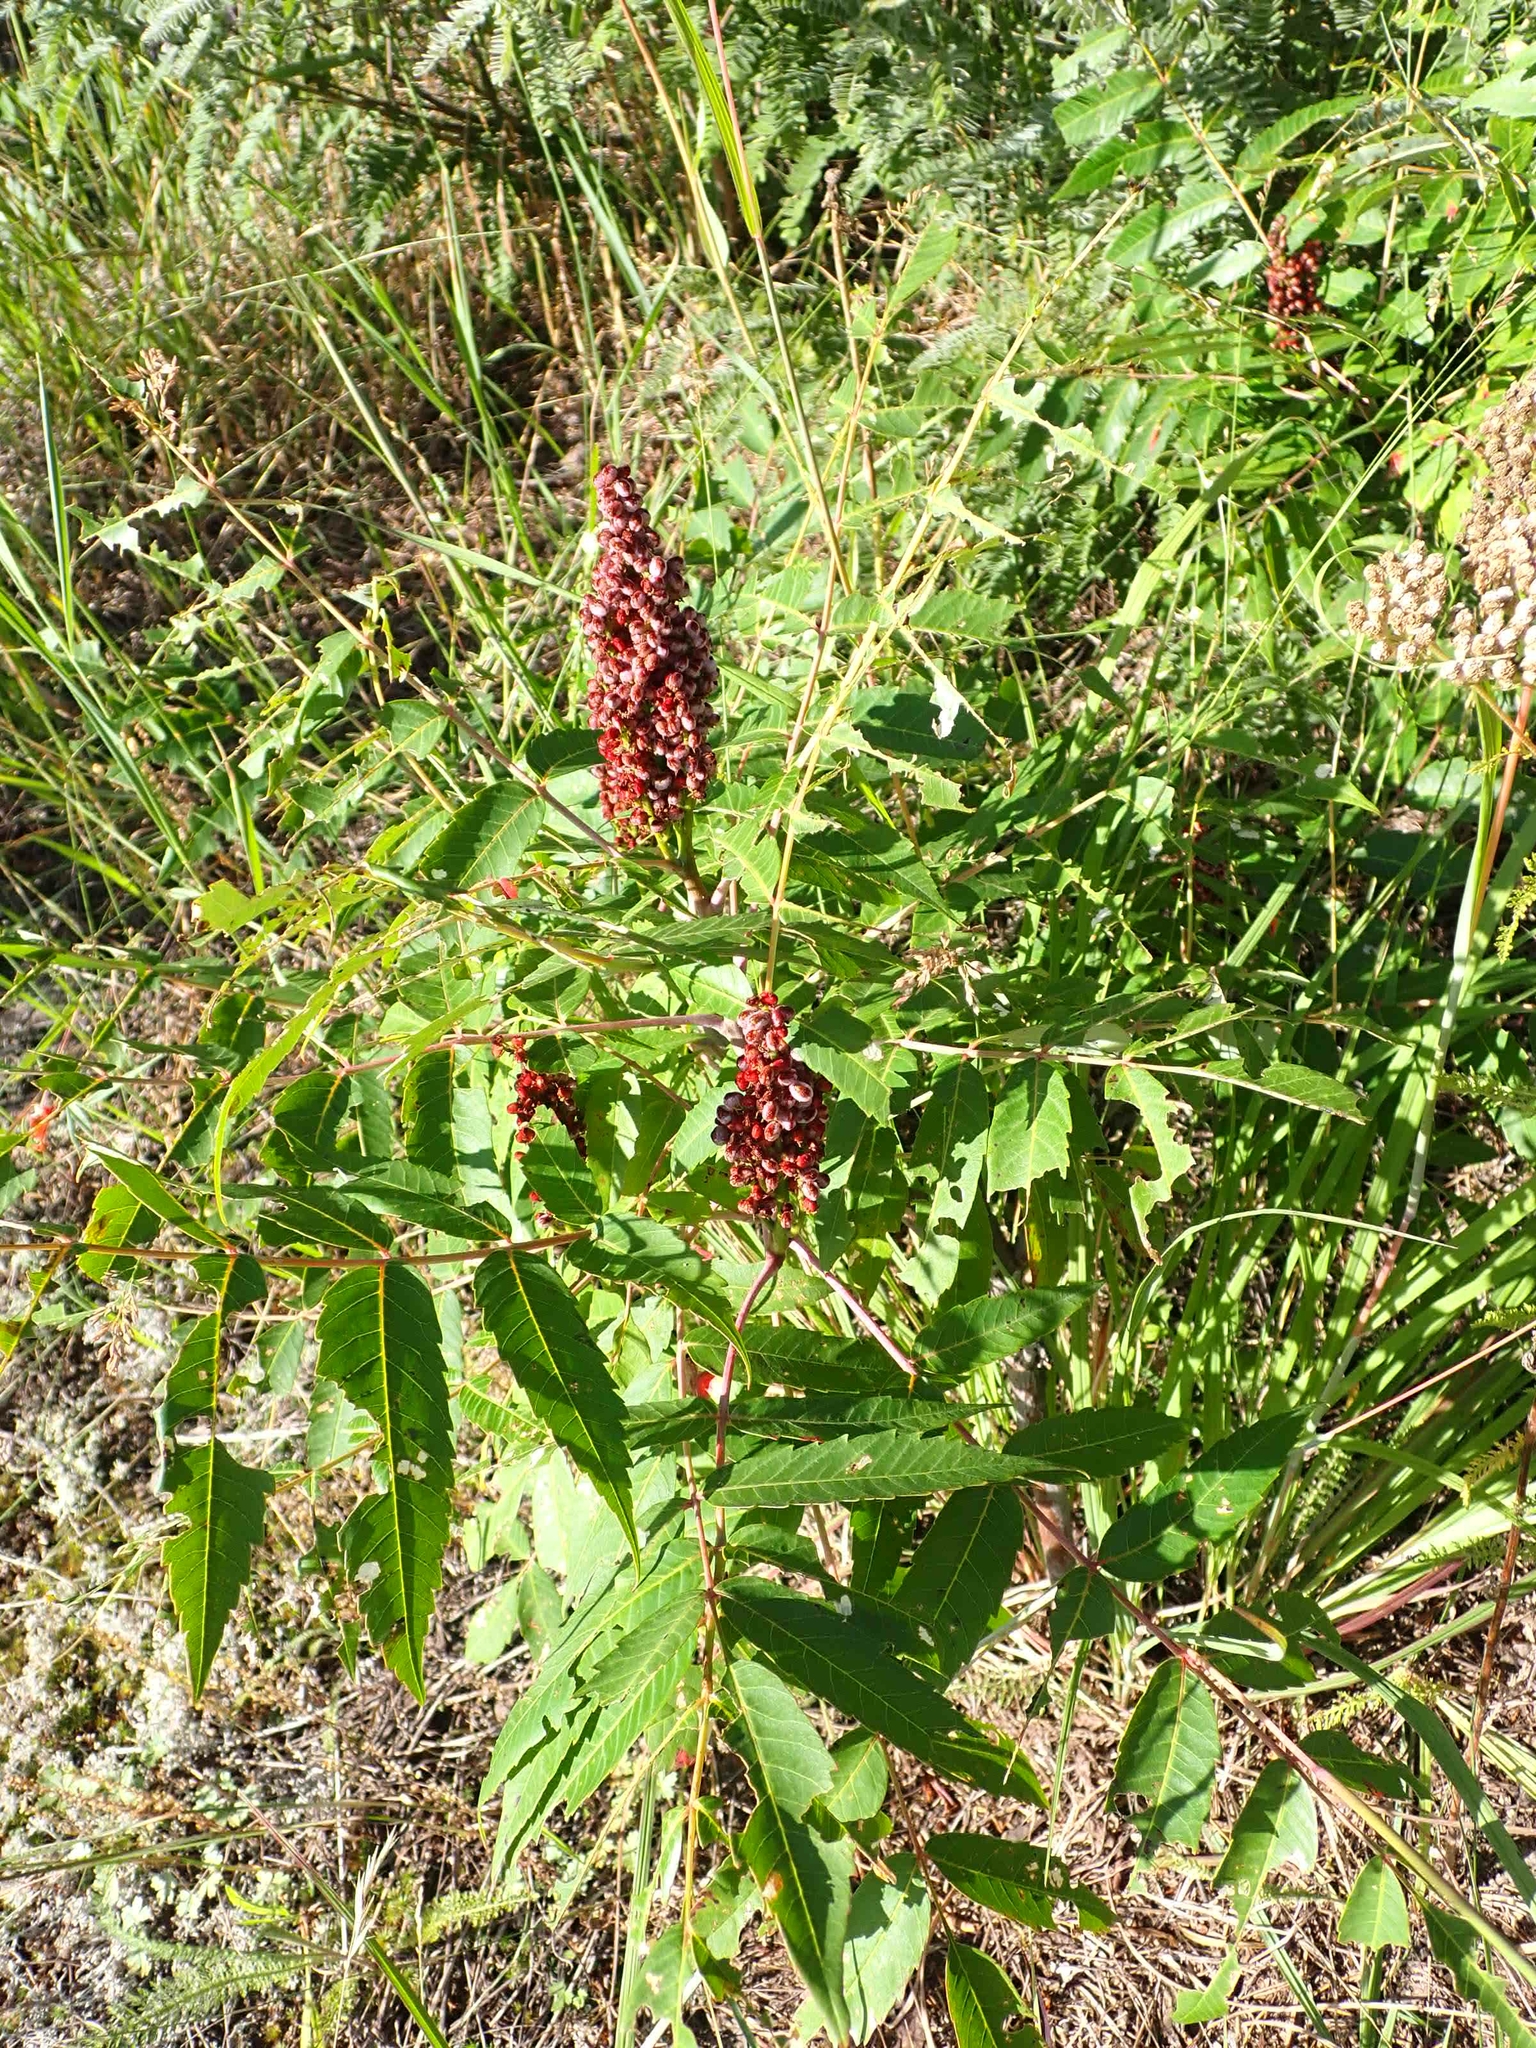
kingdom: Plantae
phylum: Tracheophyta
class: Magnoliopsida
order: Sapindales
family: Anacardiaceae
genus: Rhus
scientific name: Rhus glabra
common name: Scarlet sumac
